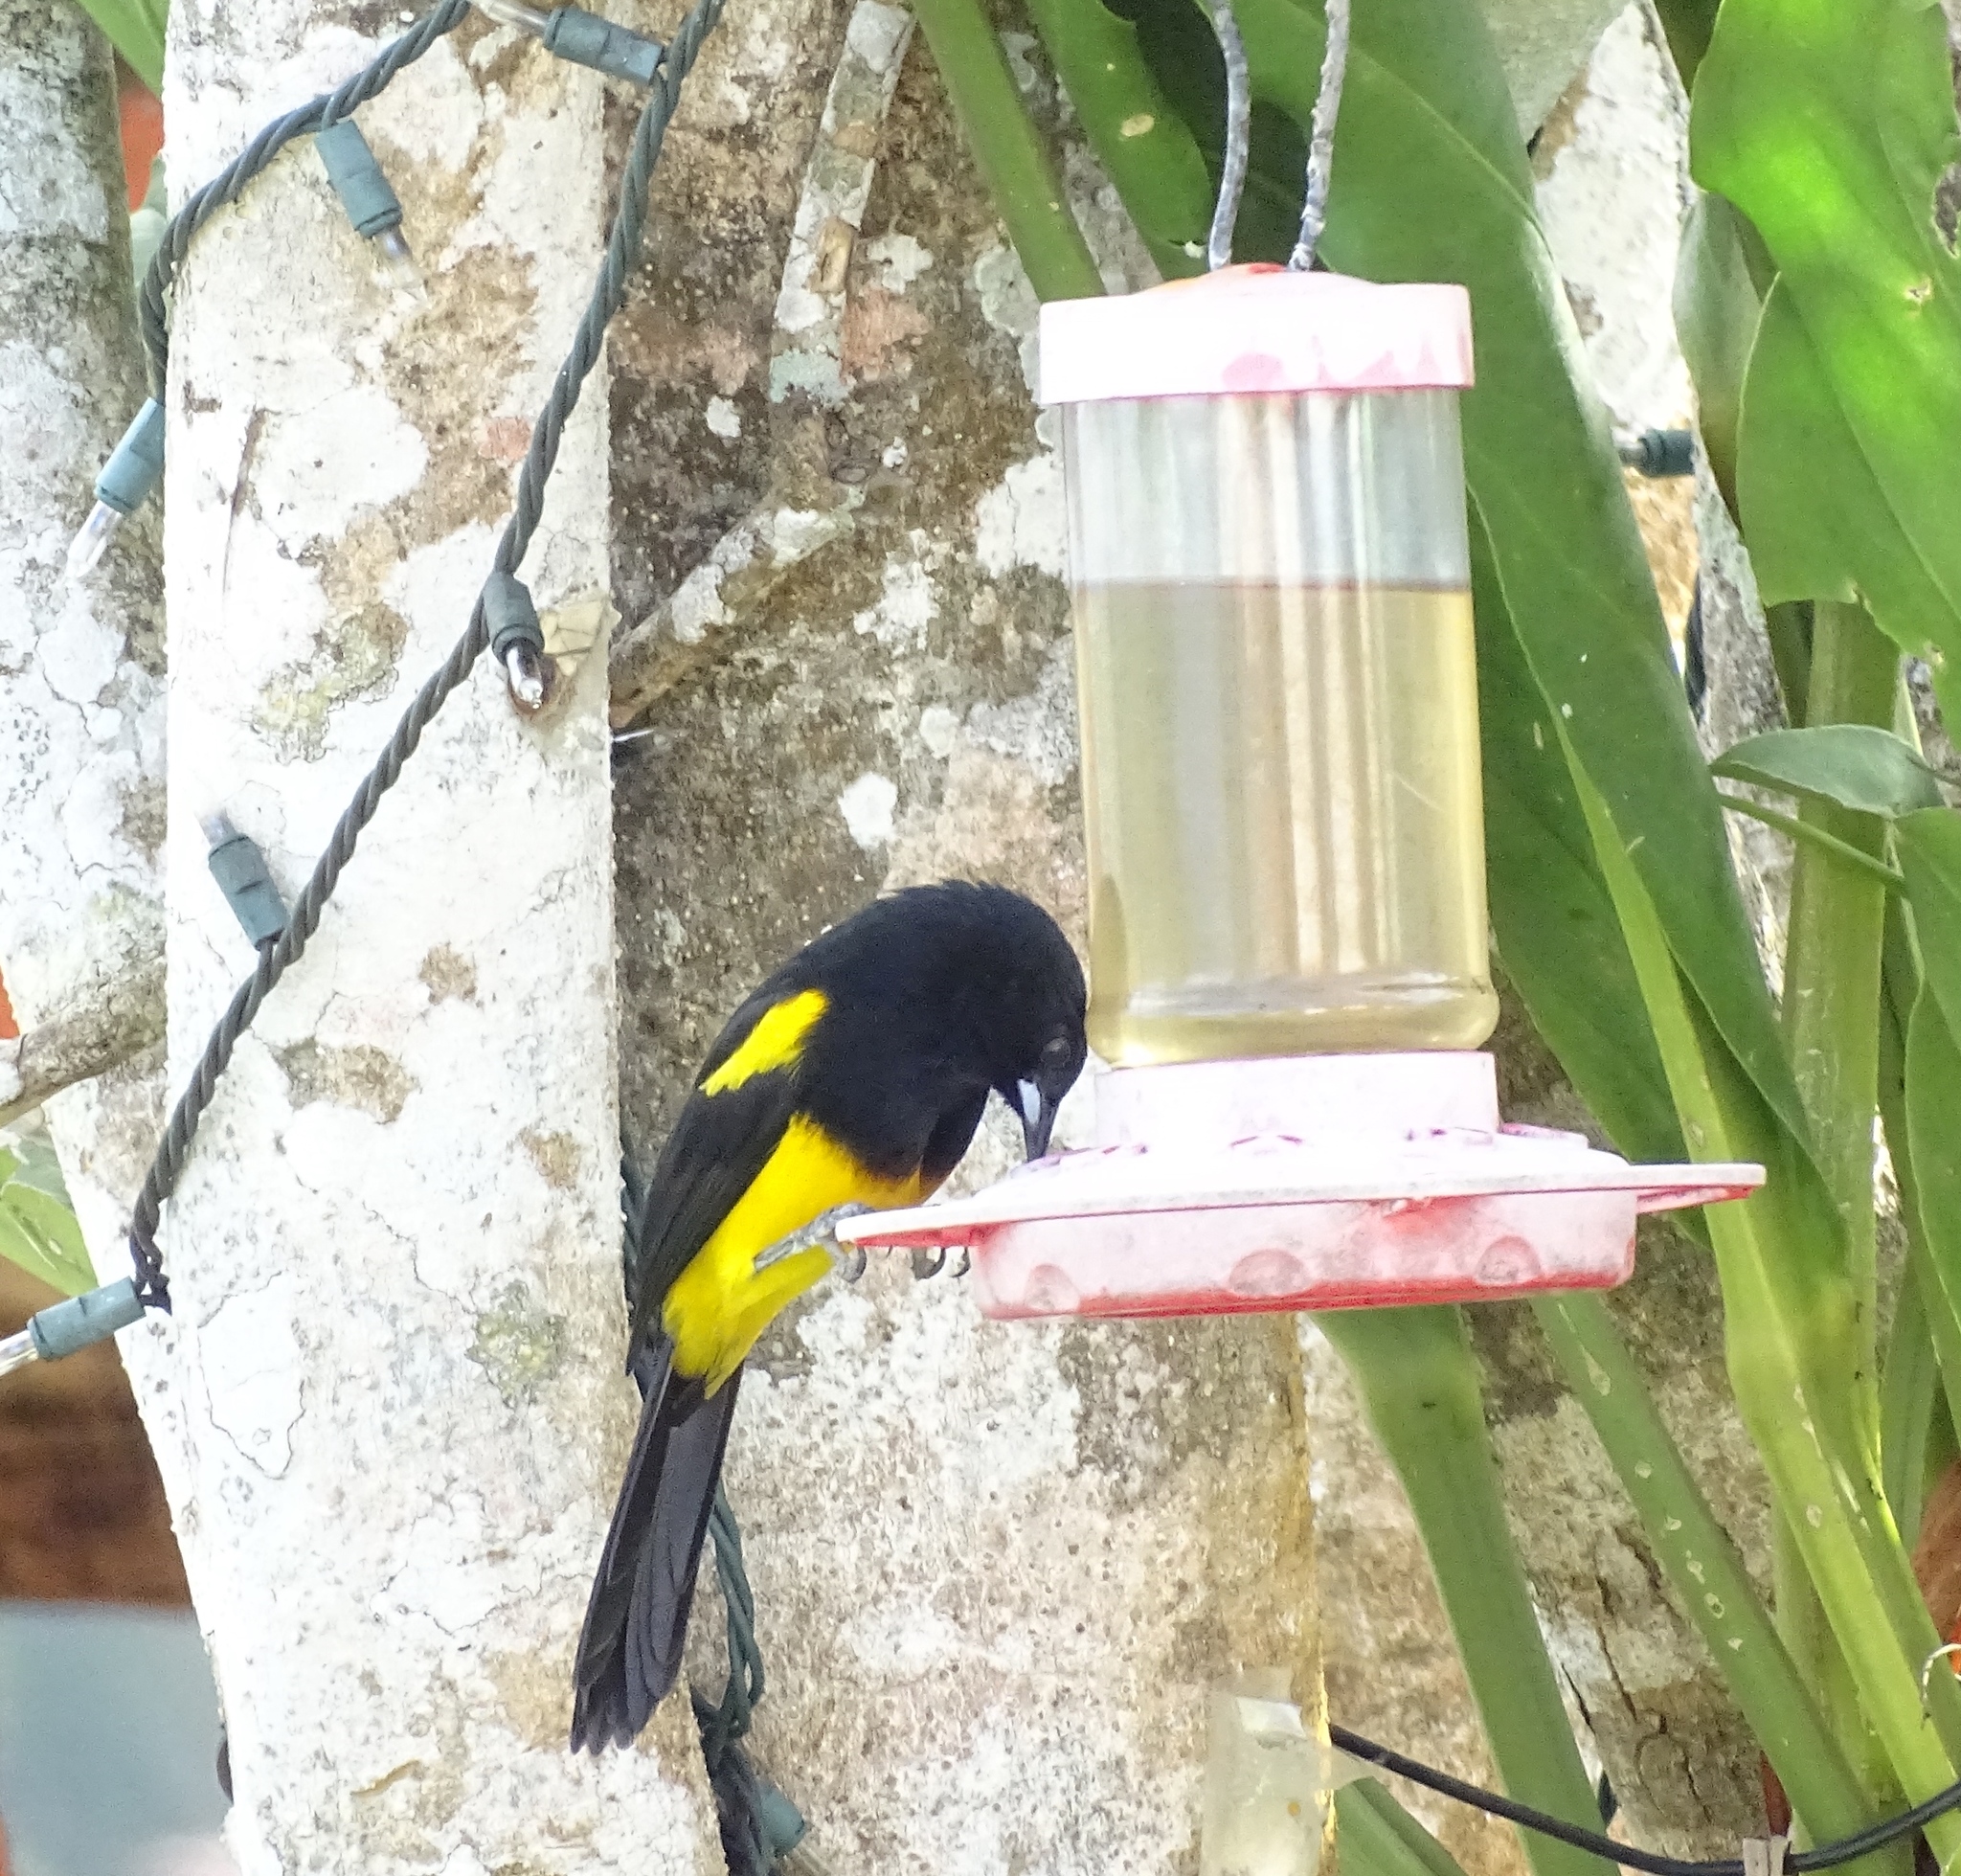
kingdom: Animalia
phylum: Chordata
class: Aves
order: Passeriformes
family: Icteridae
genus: Icterus
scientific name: Icterus prosthemelas
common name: Black-cowled oriole
